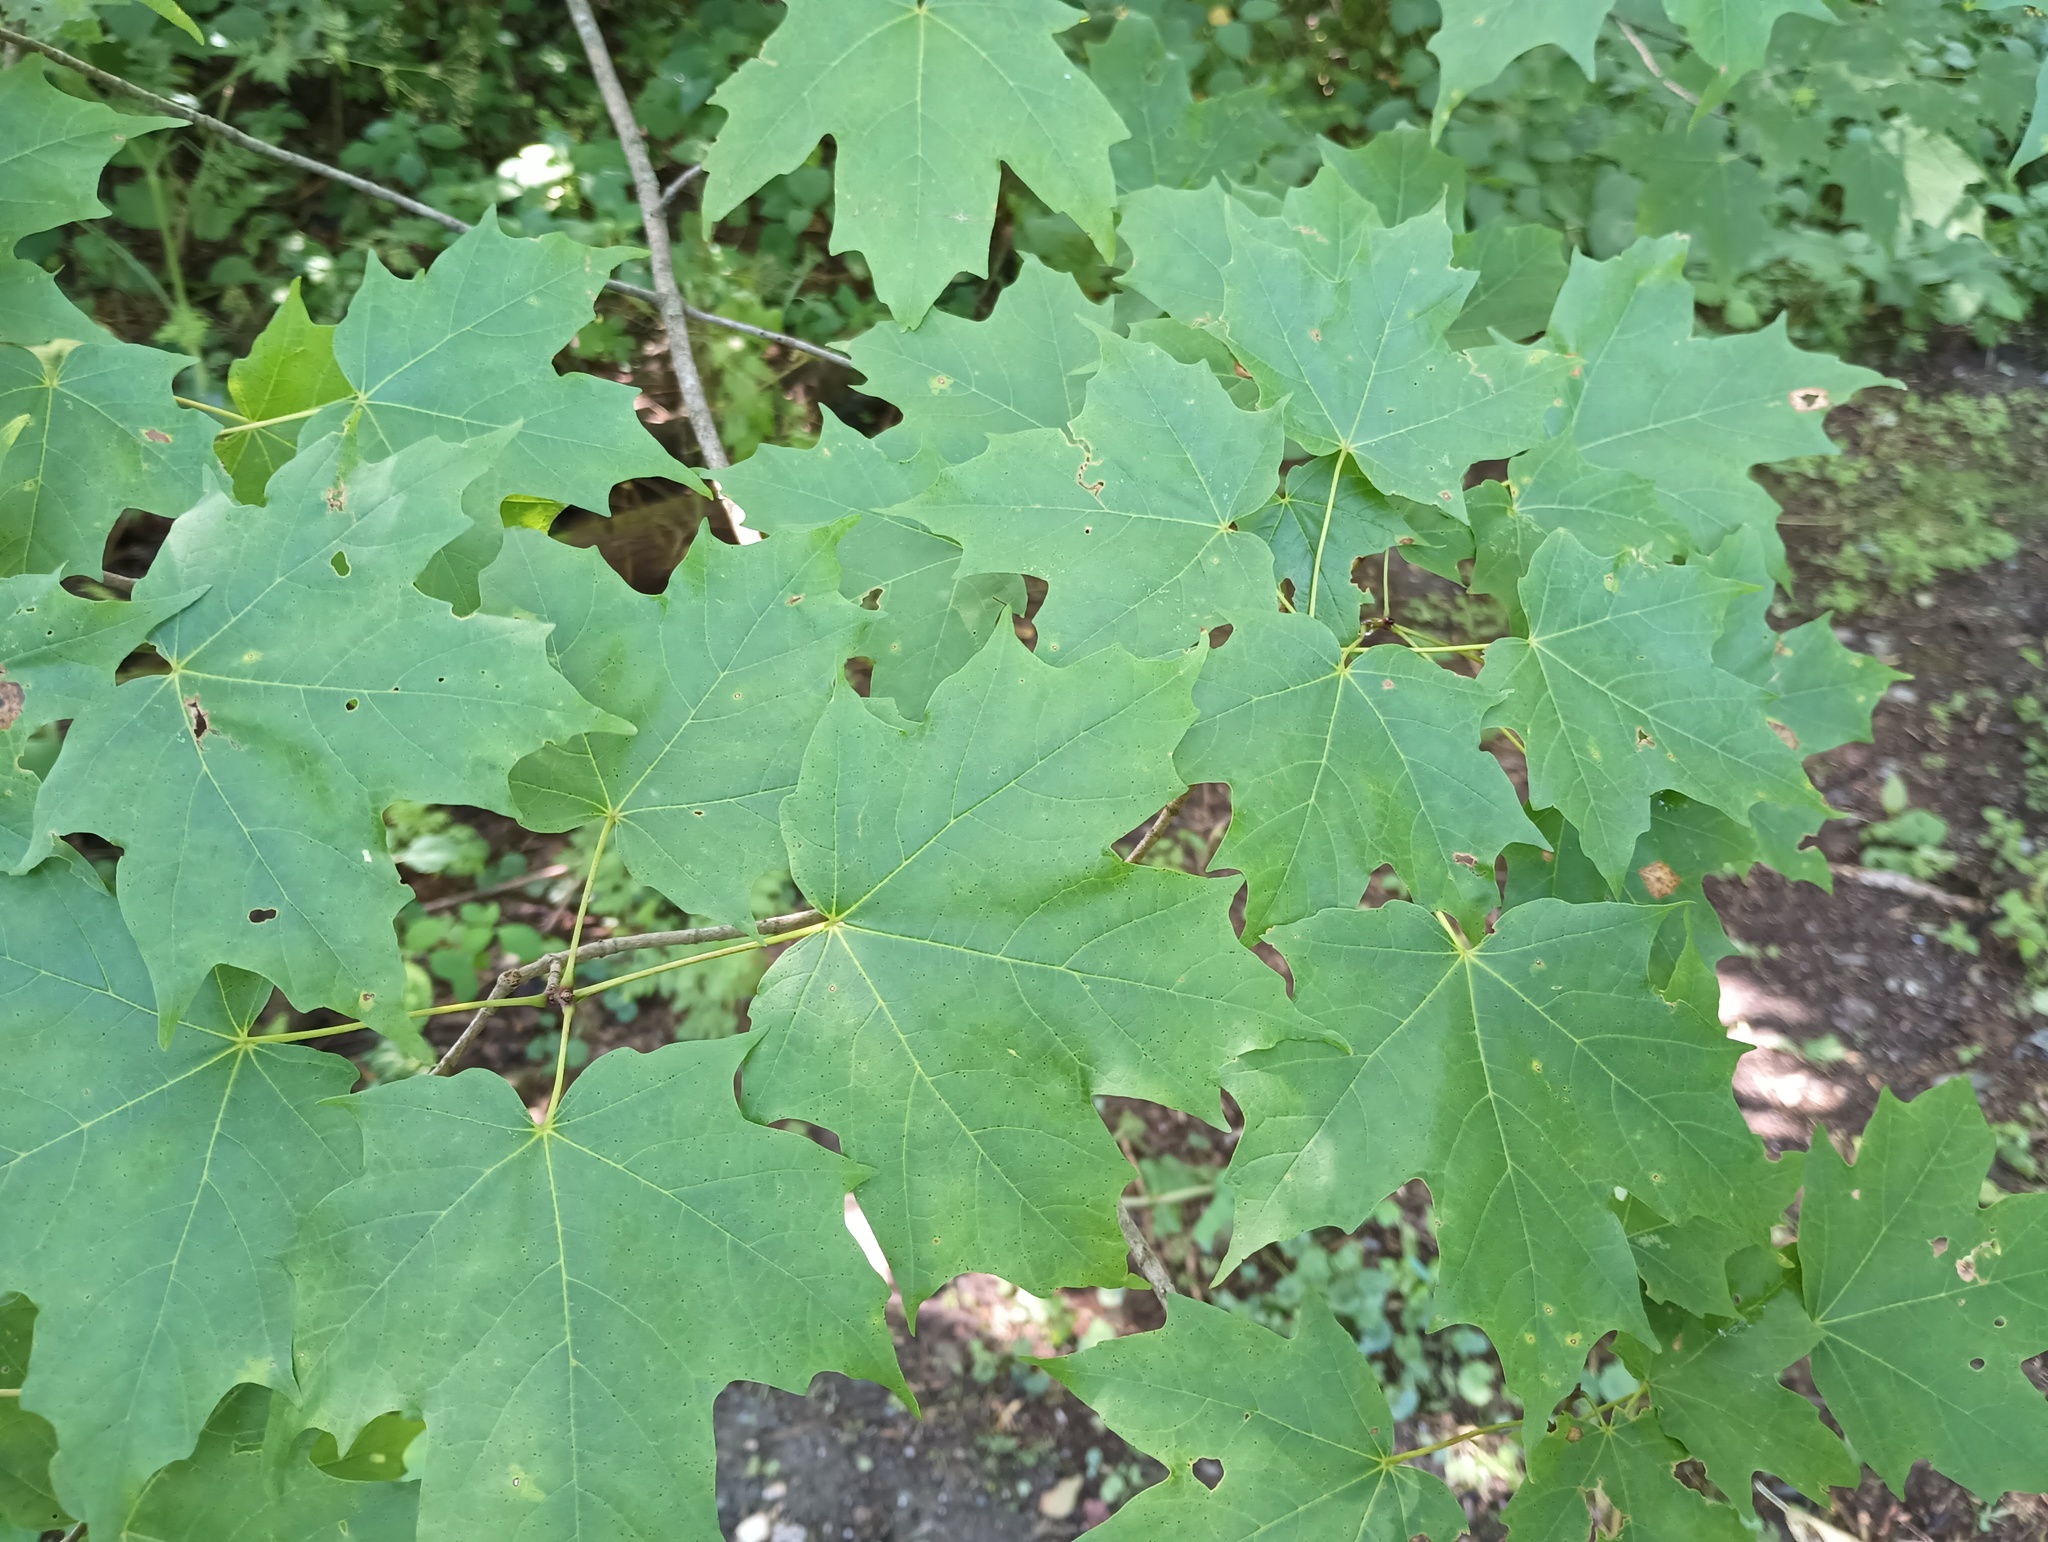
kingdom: Plantae
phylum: Tracheophyta
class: Magnoliopsida
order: Sapindales
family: Sapindaceae
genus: Acer
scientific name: Acer saccharum
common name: Sugar maple
